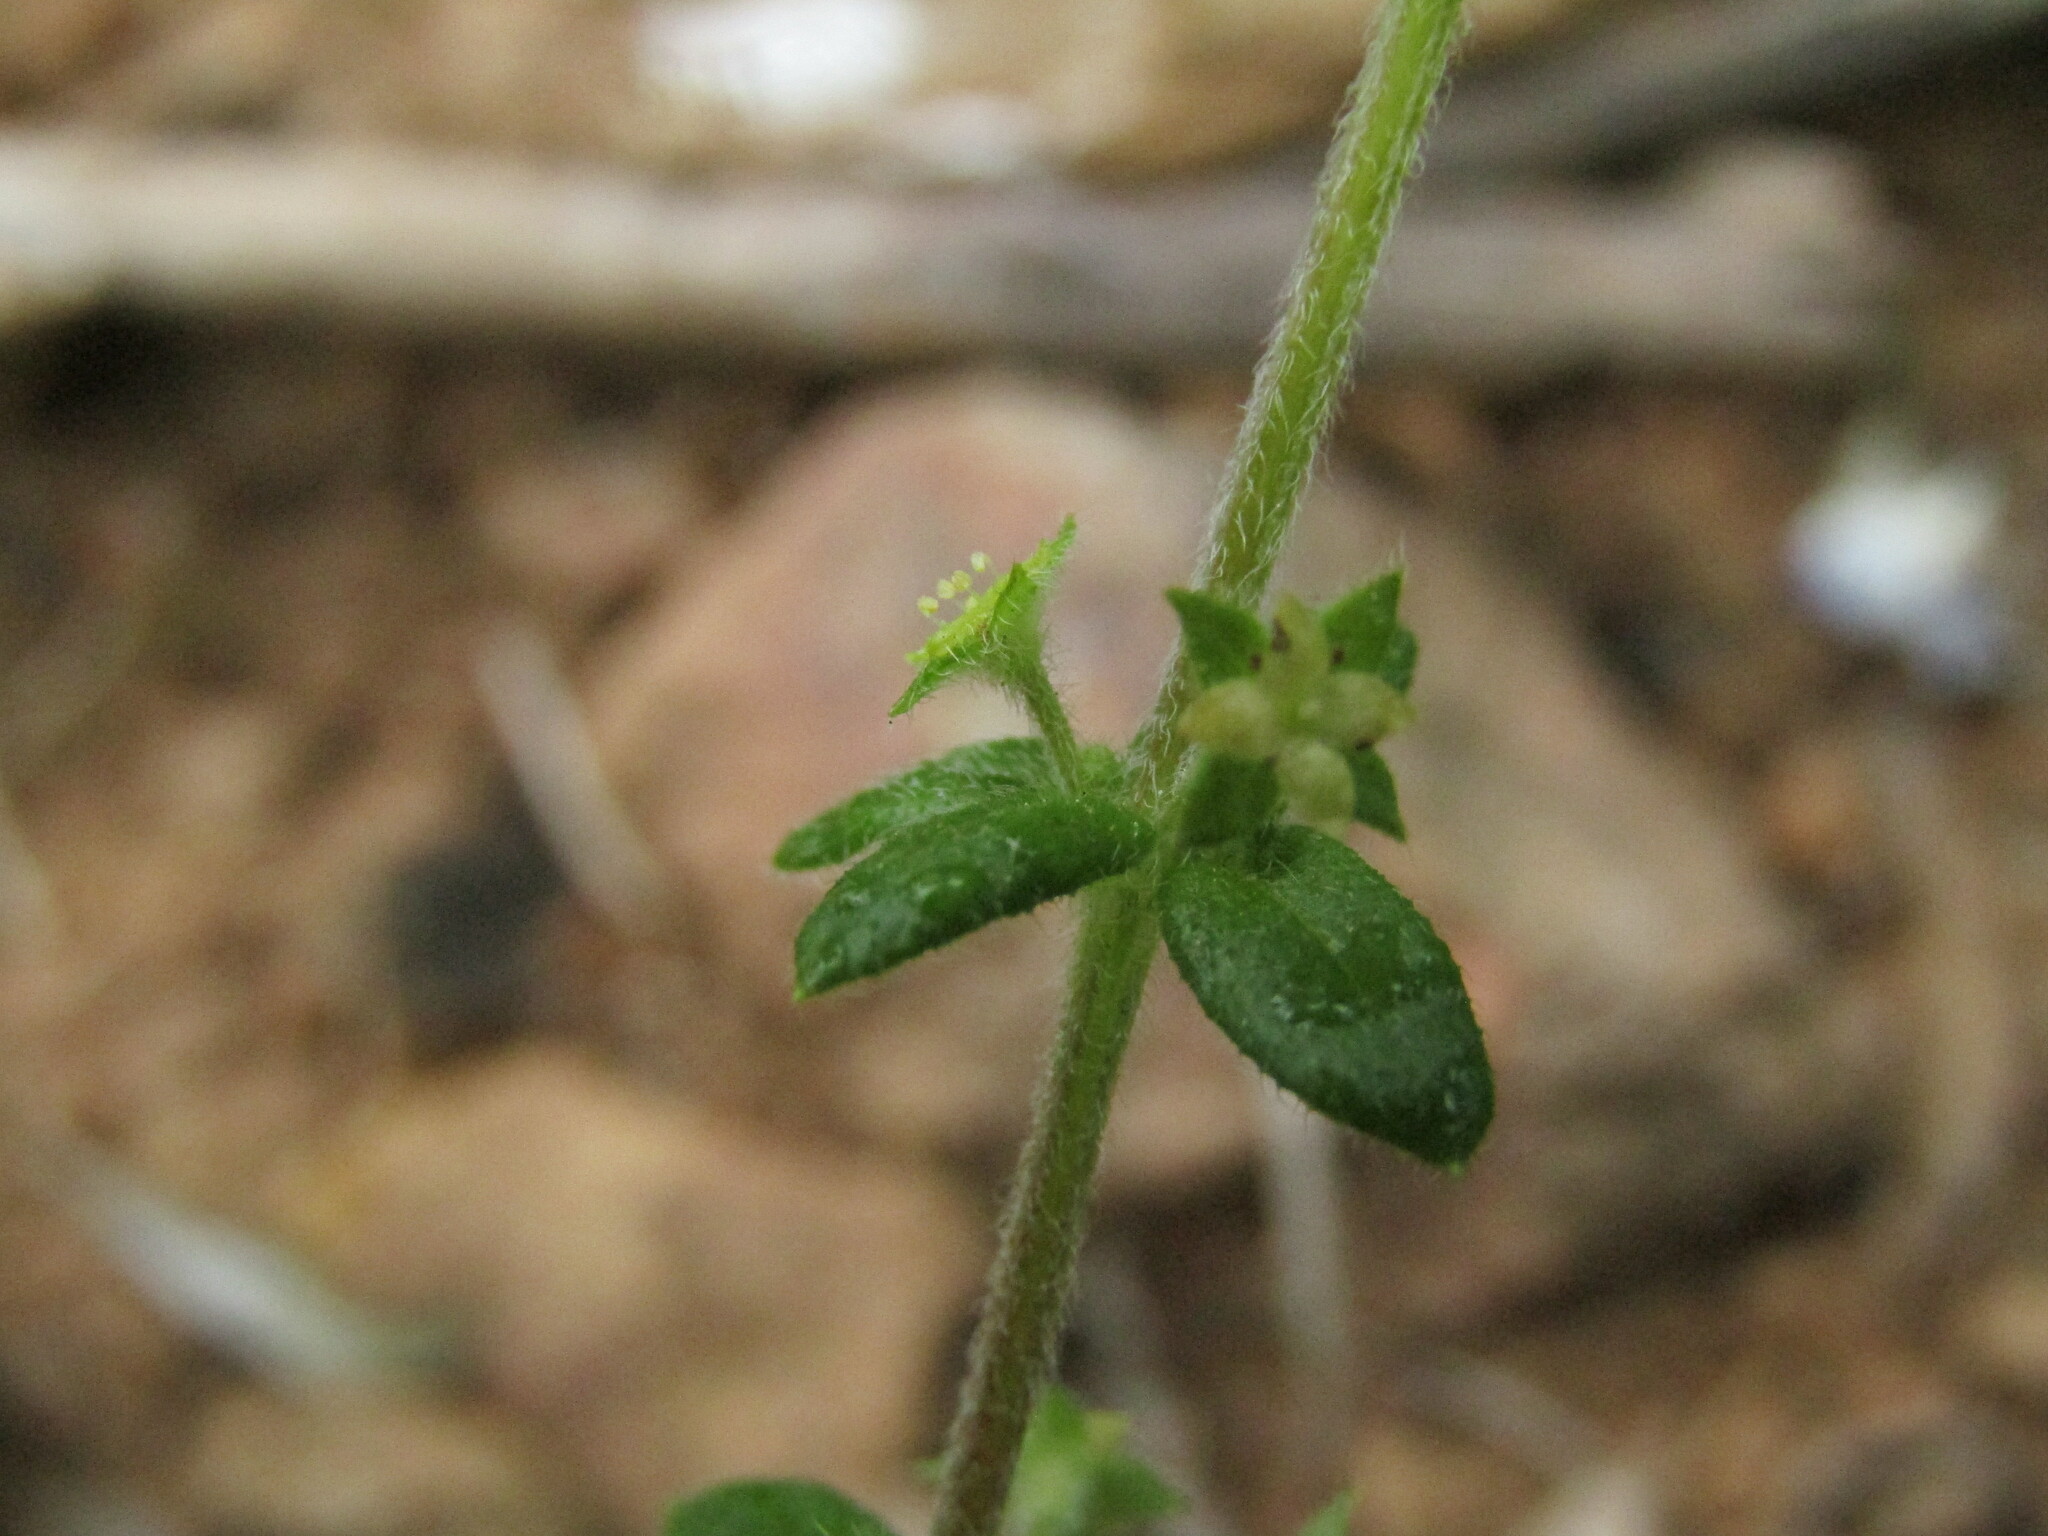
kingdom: Plantae
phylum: Tracheophyta
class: Magnoliopsida
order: Gentianales
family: Rubiaceae
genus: Galium
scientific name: Galium hypocarpium
